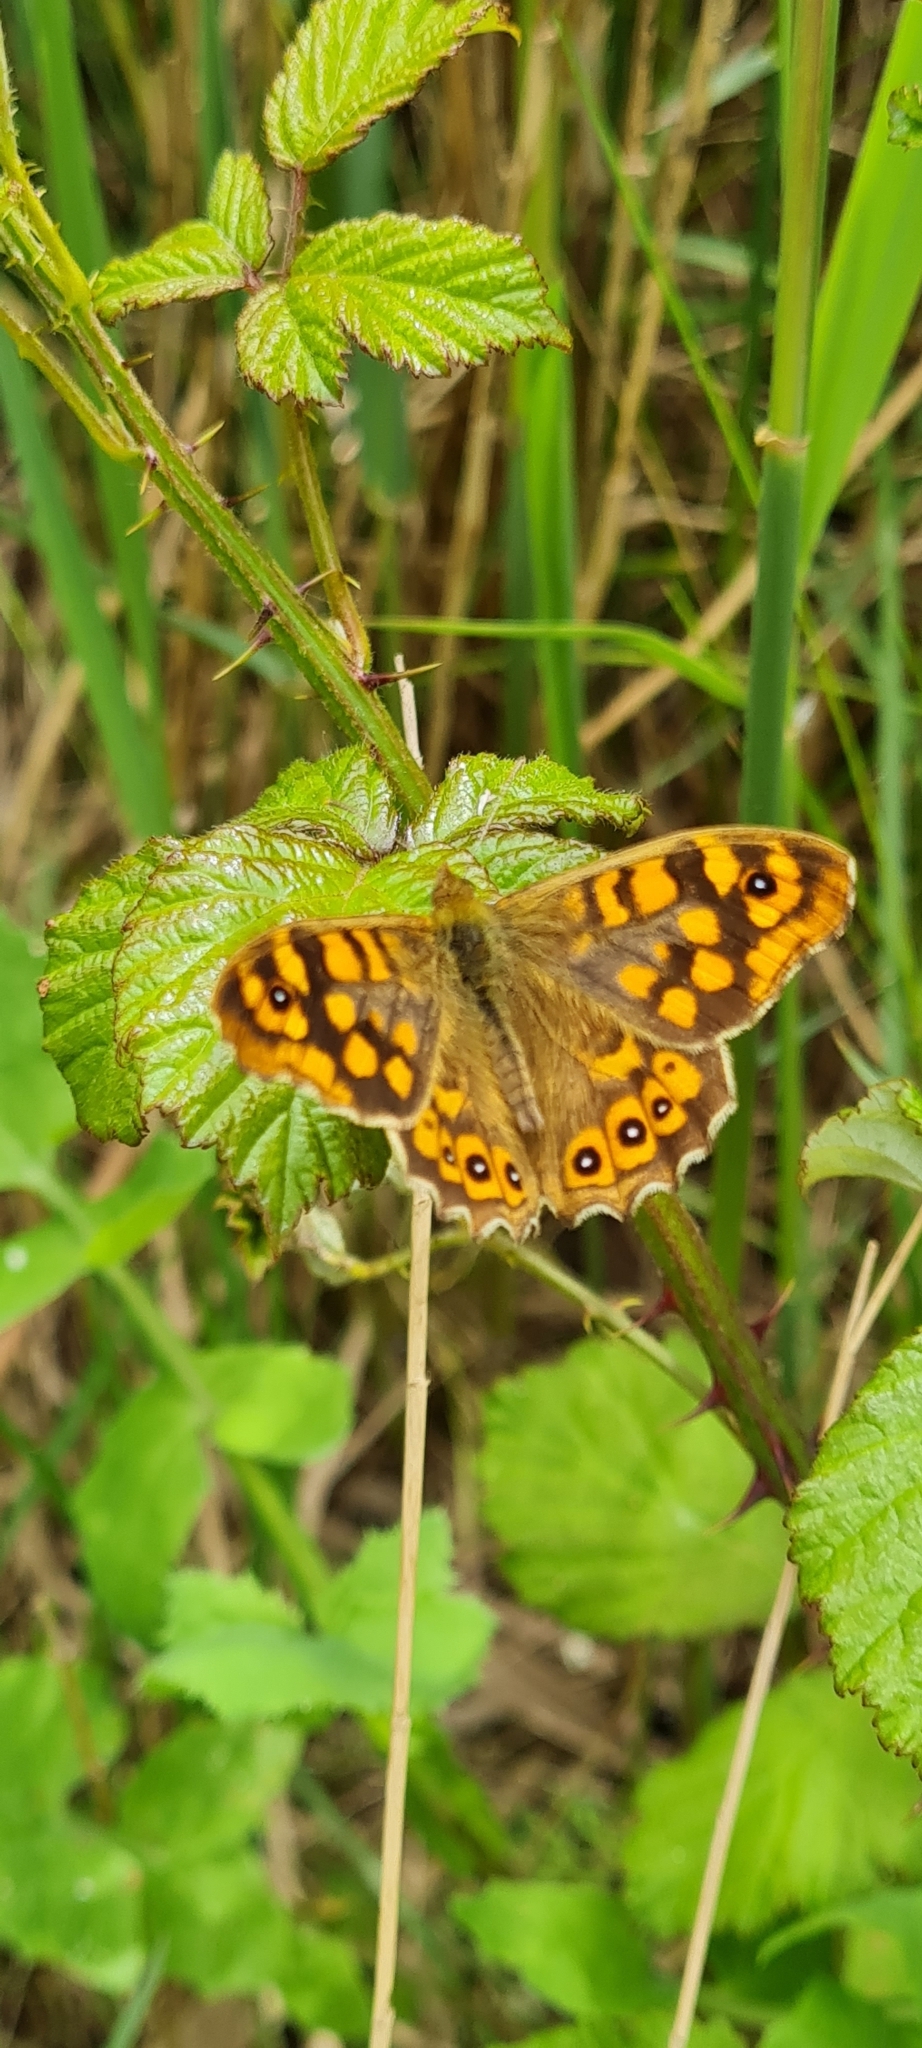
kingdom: Animalia
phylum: Arthropoda
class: Insecta
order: Lepidoptera
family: Nymphalidae
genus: Pararge
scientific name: Pararge aegeria
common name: Speckled wood
